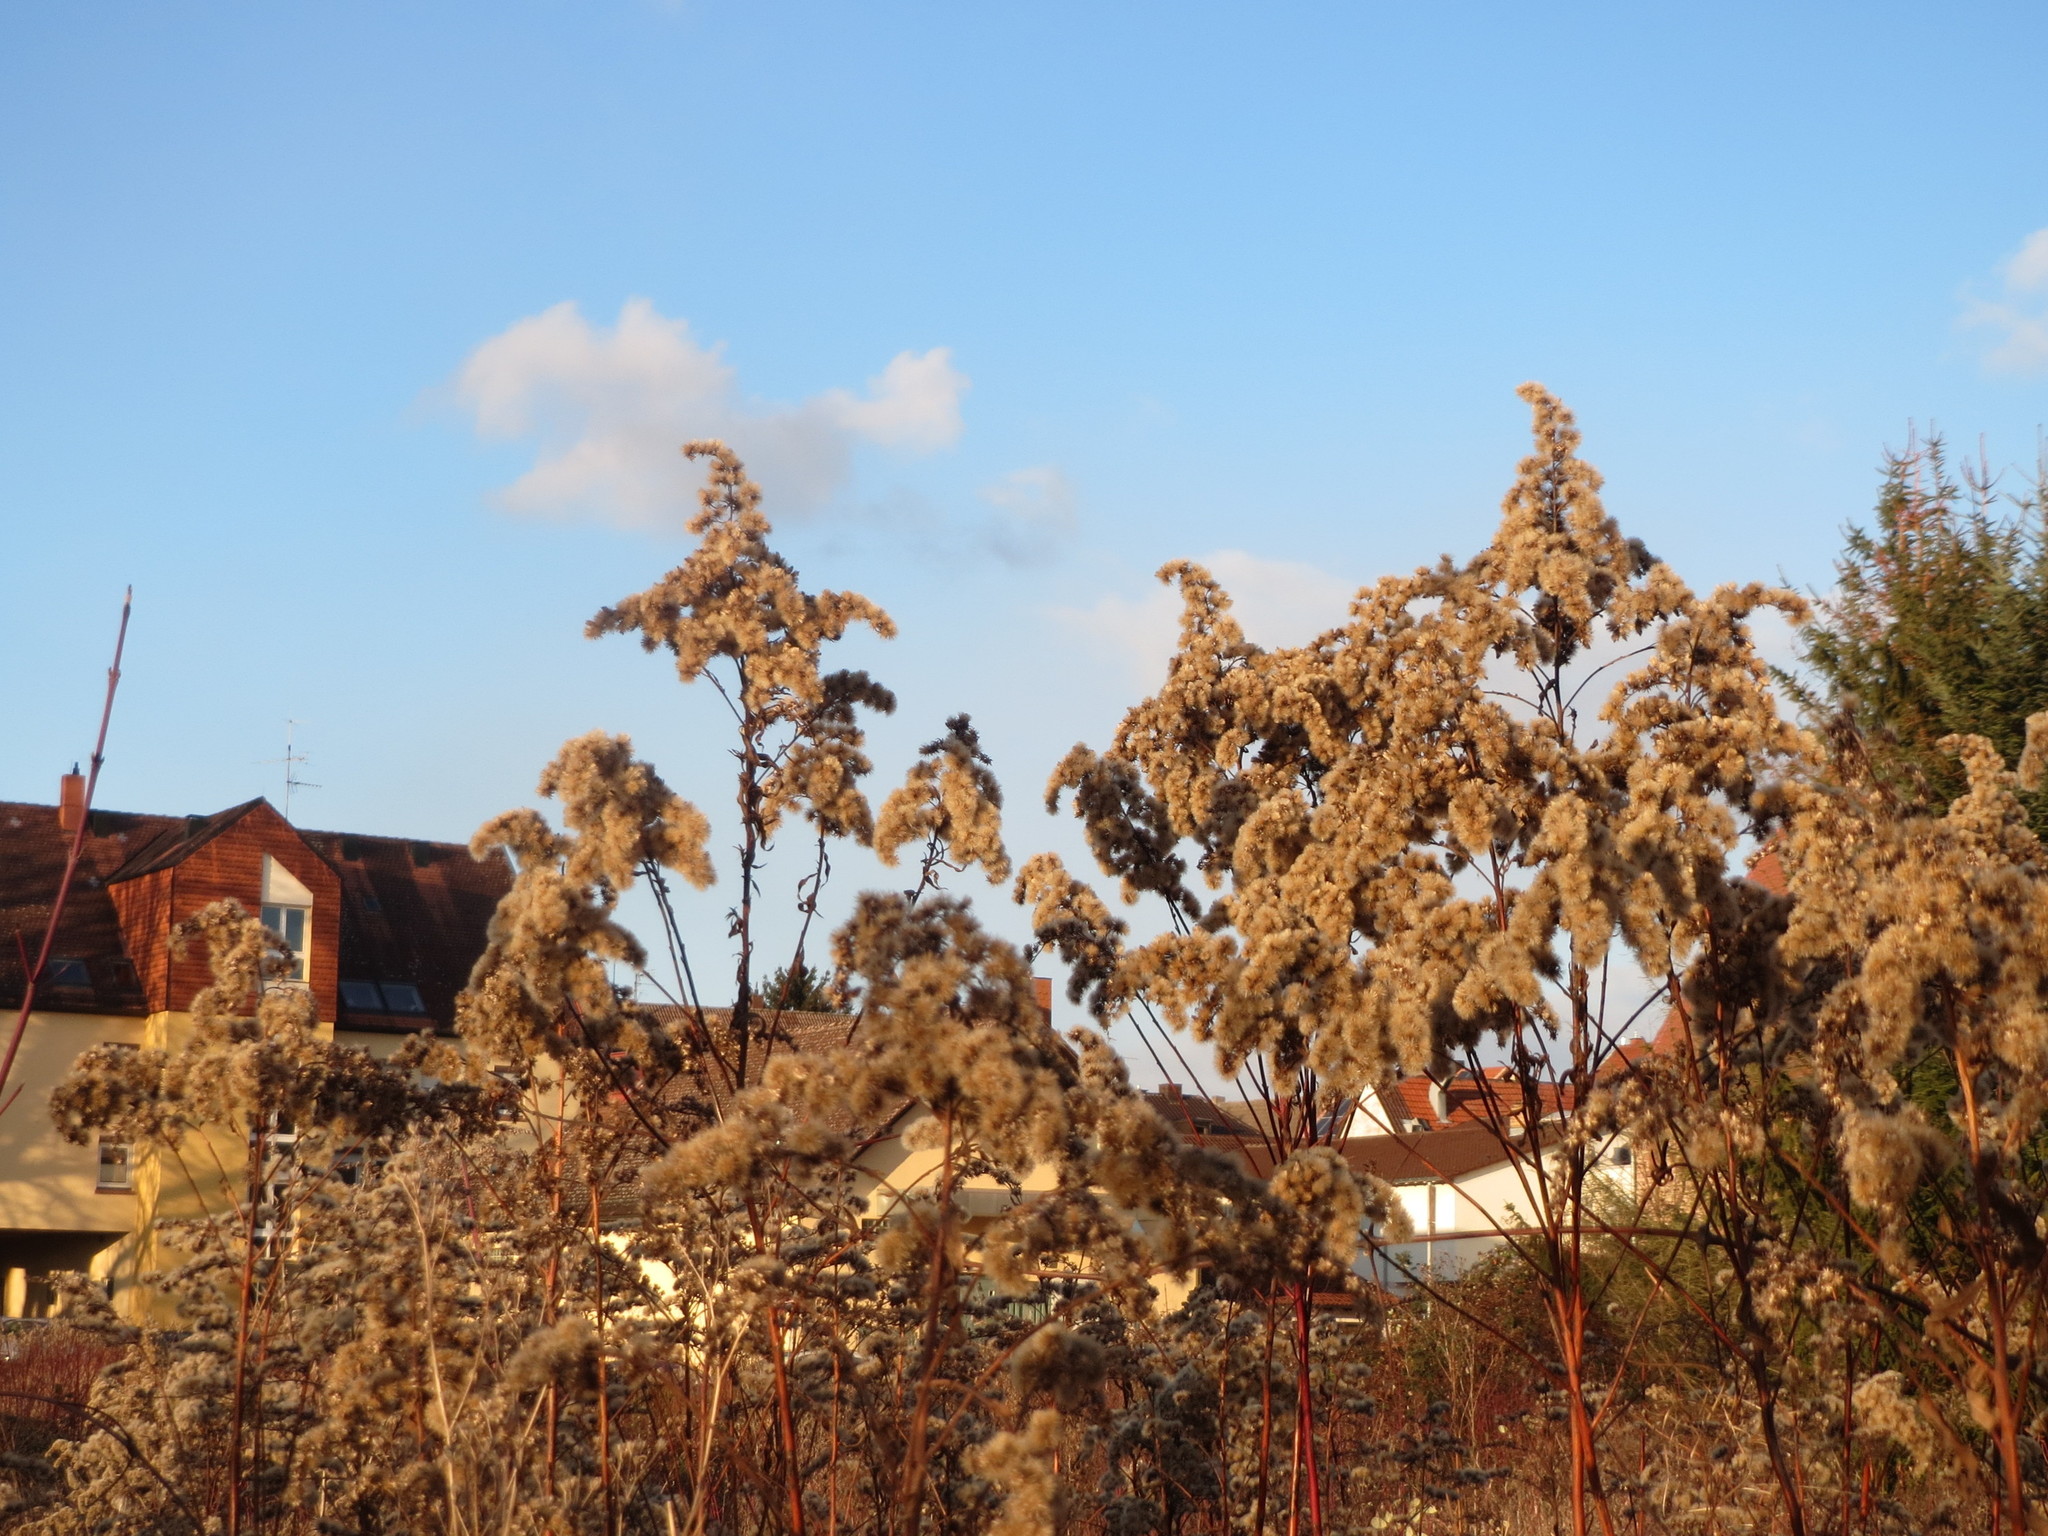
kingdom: Plantae
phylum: Tracheophyta
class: Magnoliopsida
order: Asterales
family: Asteraceae
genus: Solidago
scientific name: Solidago canadensis
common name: Canada goldenrod
